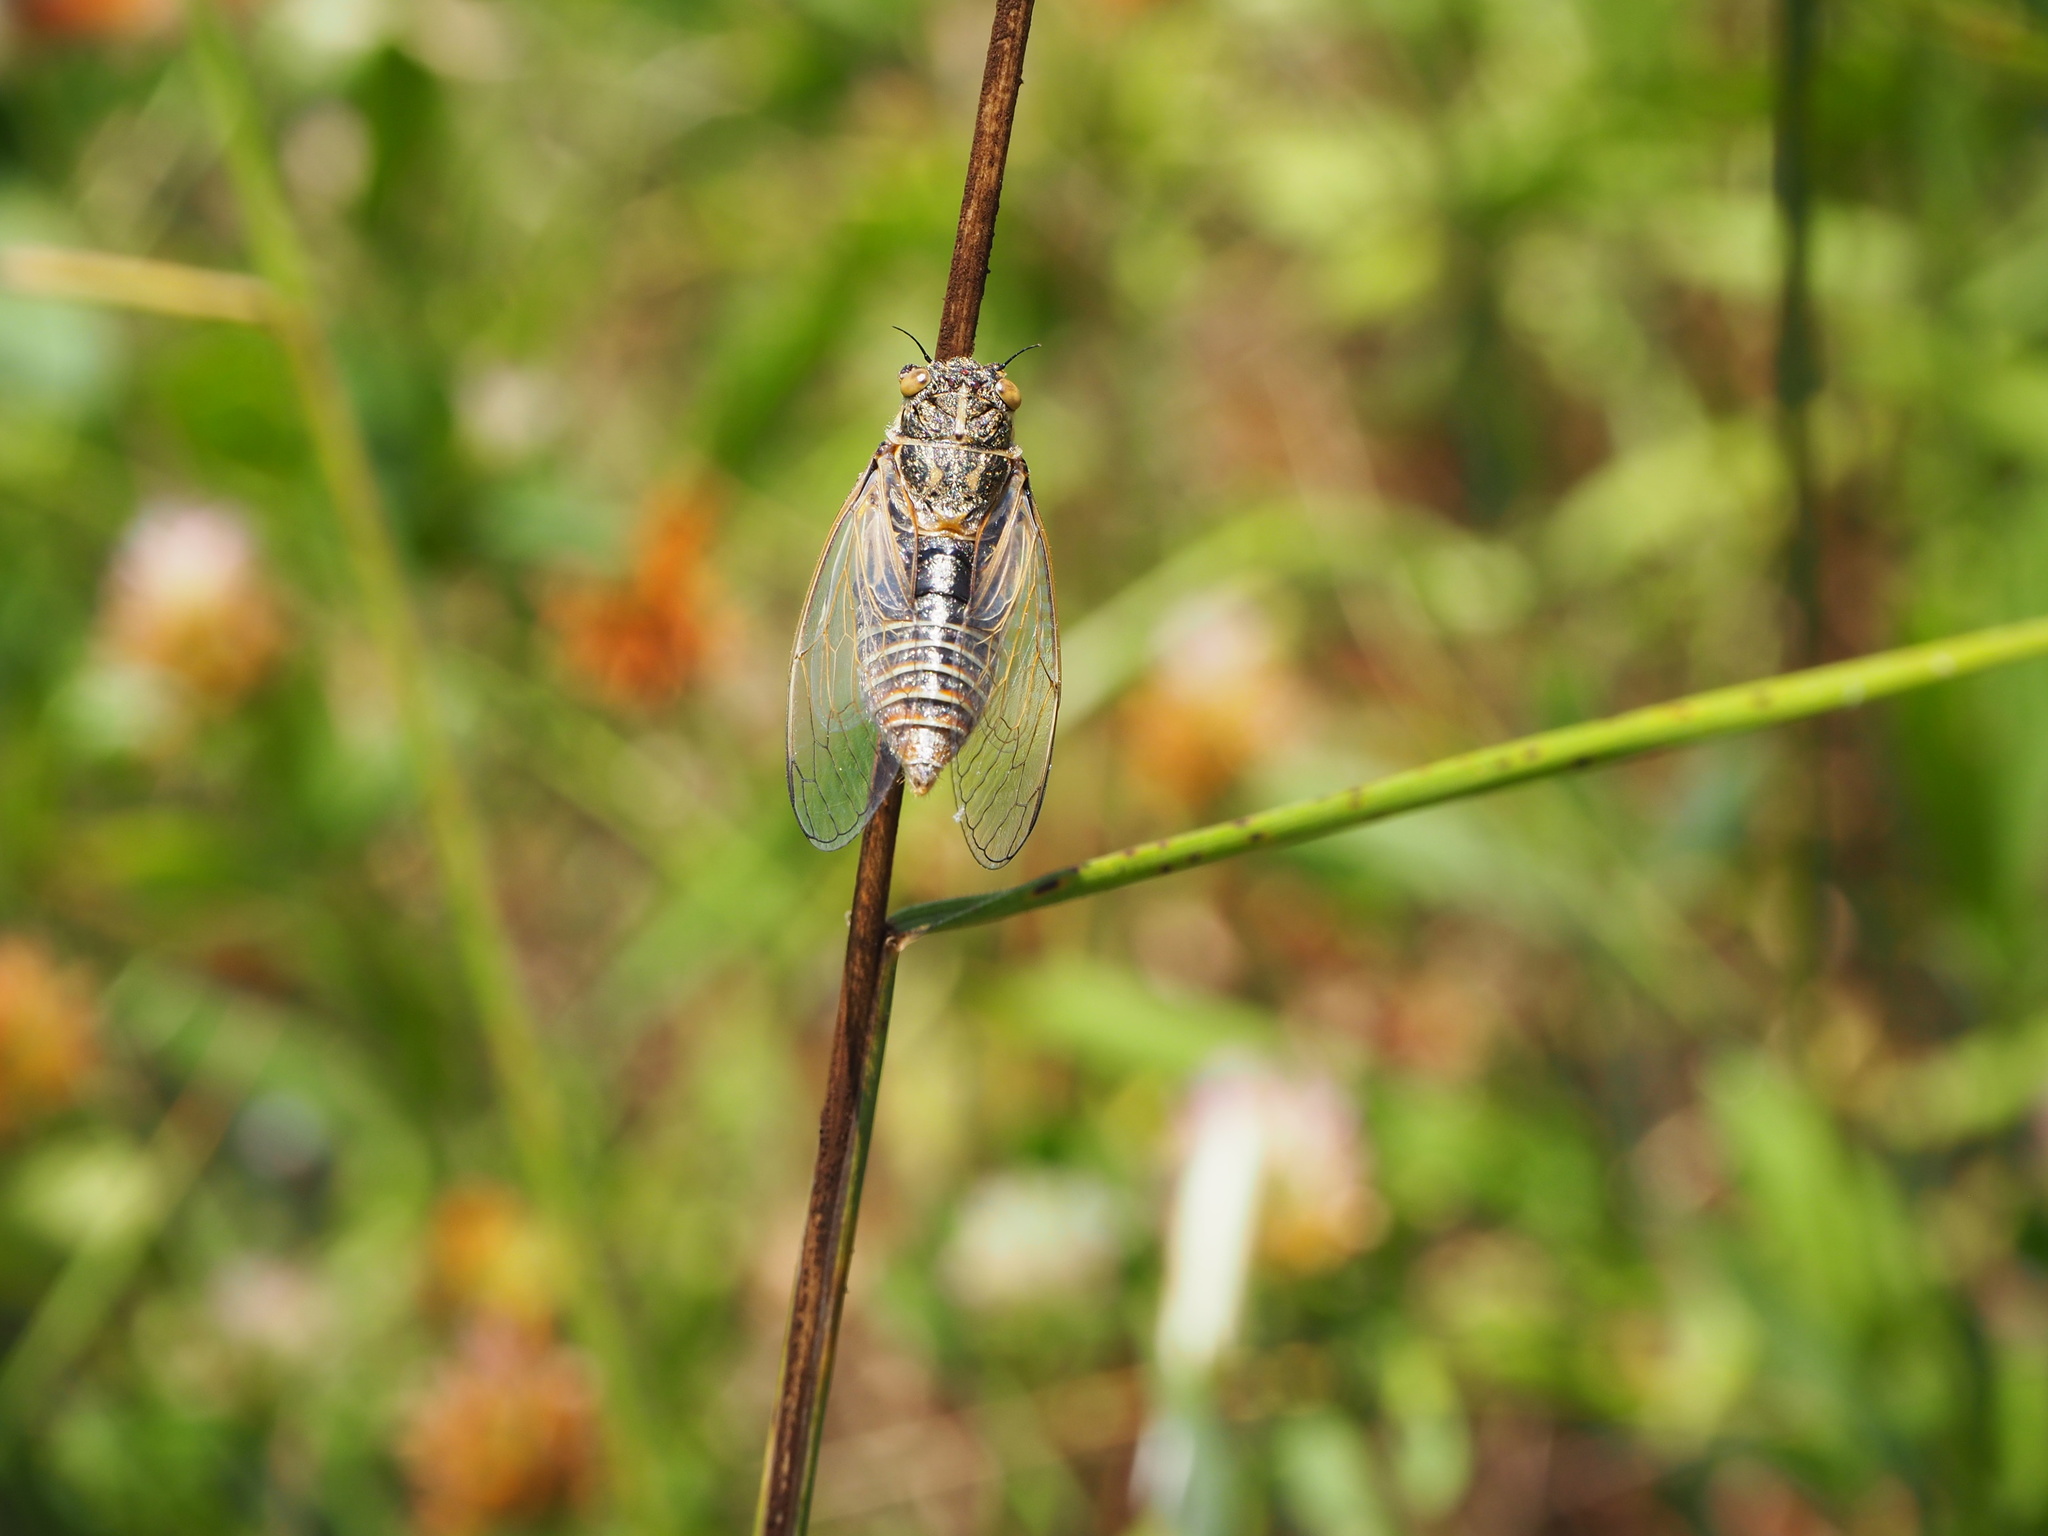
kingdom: Animalia
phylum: Arthropoda
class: Insecta
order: Hemiptera
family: Cicadidae
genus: Cicadetta
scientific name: Cicadetta mediterranea
